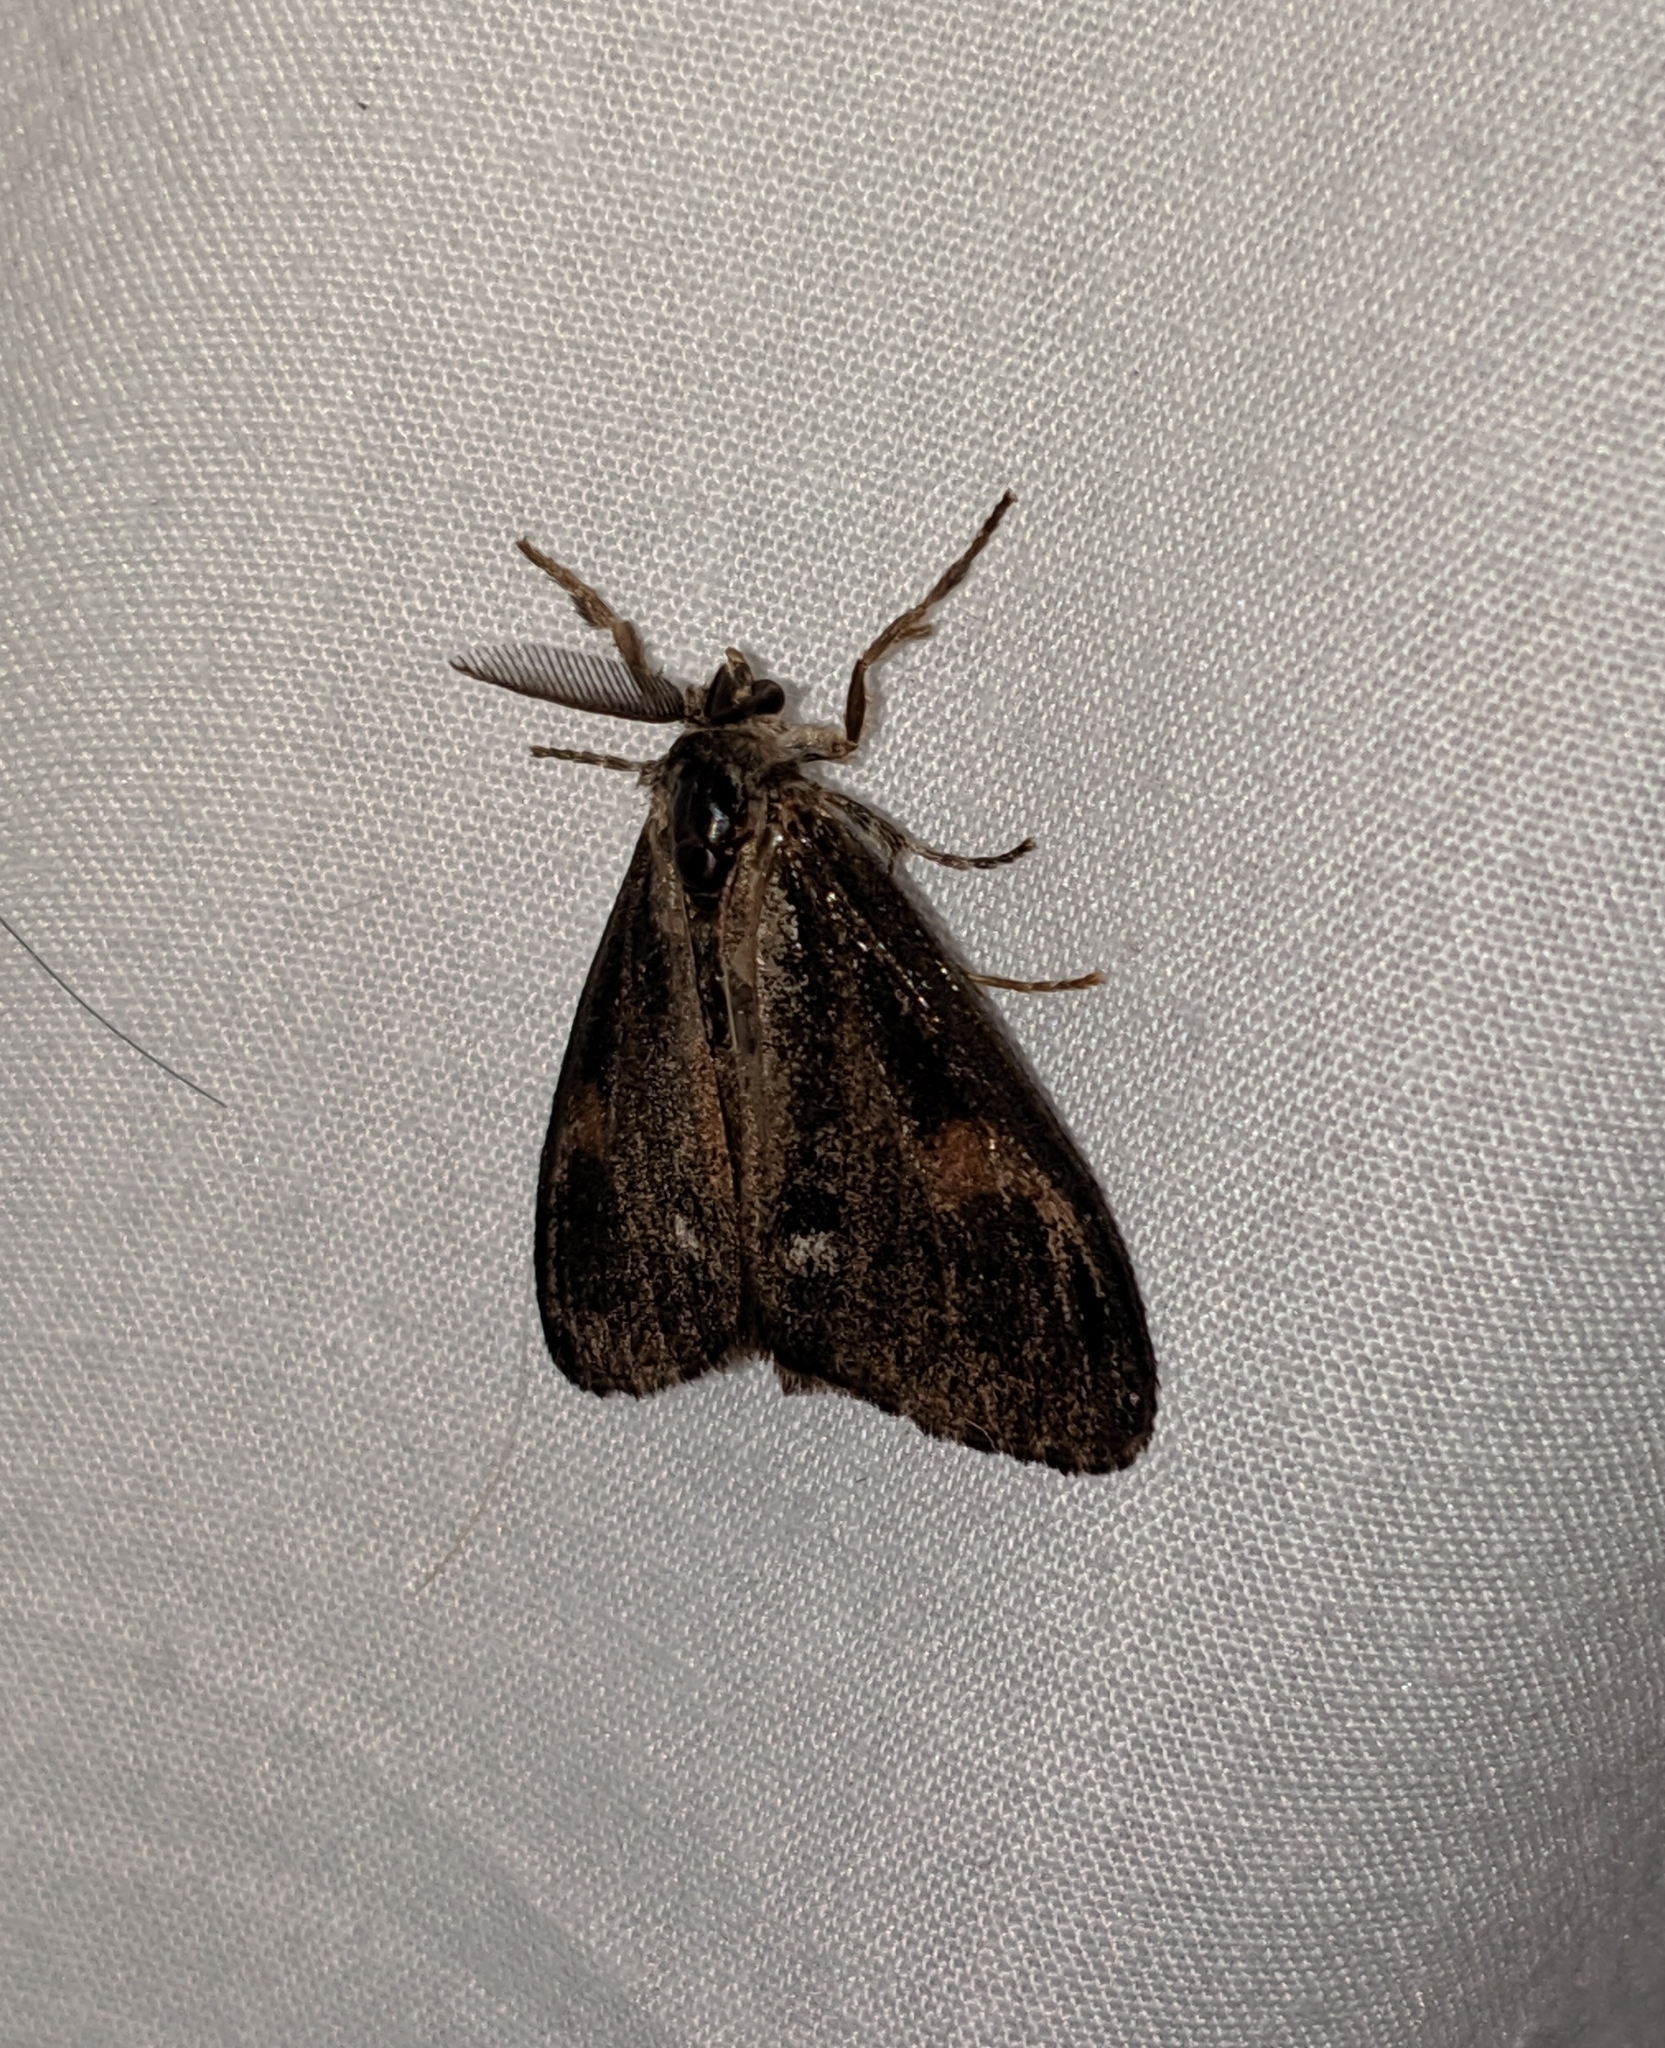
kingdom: Animalia
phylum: Arthropoda
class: Insecta
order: Lepidoptera
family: Erebidae
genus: Orgyia
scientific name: Orgyia pseudotsugata
